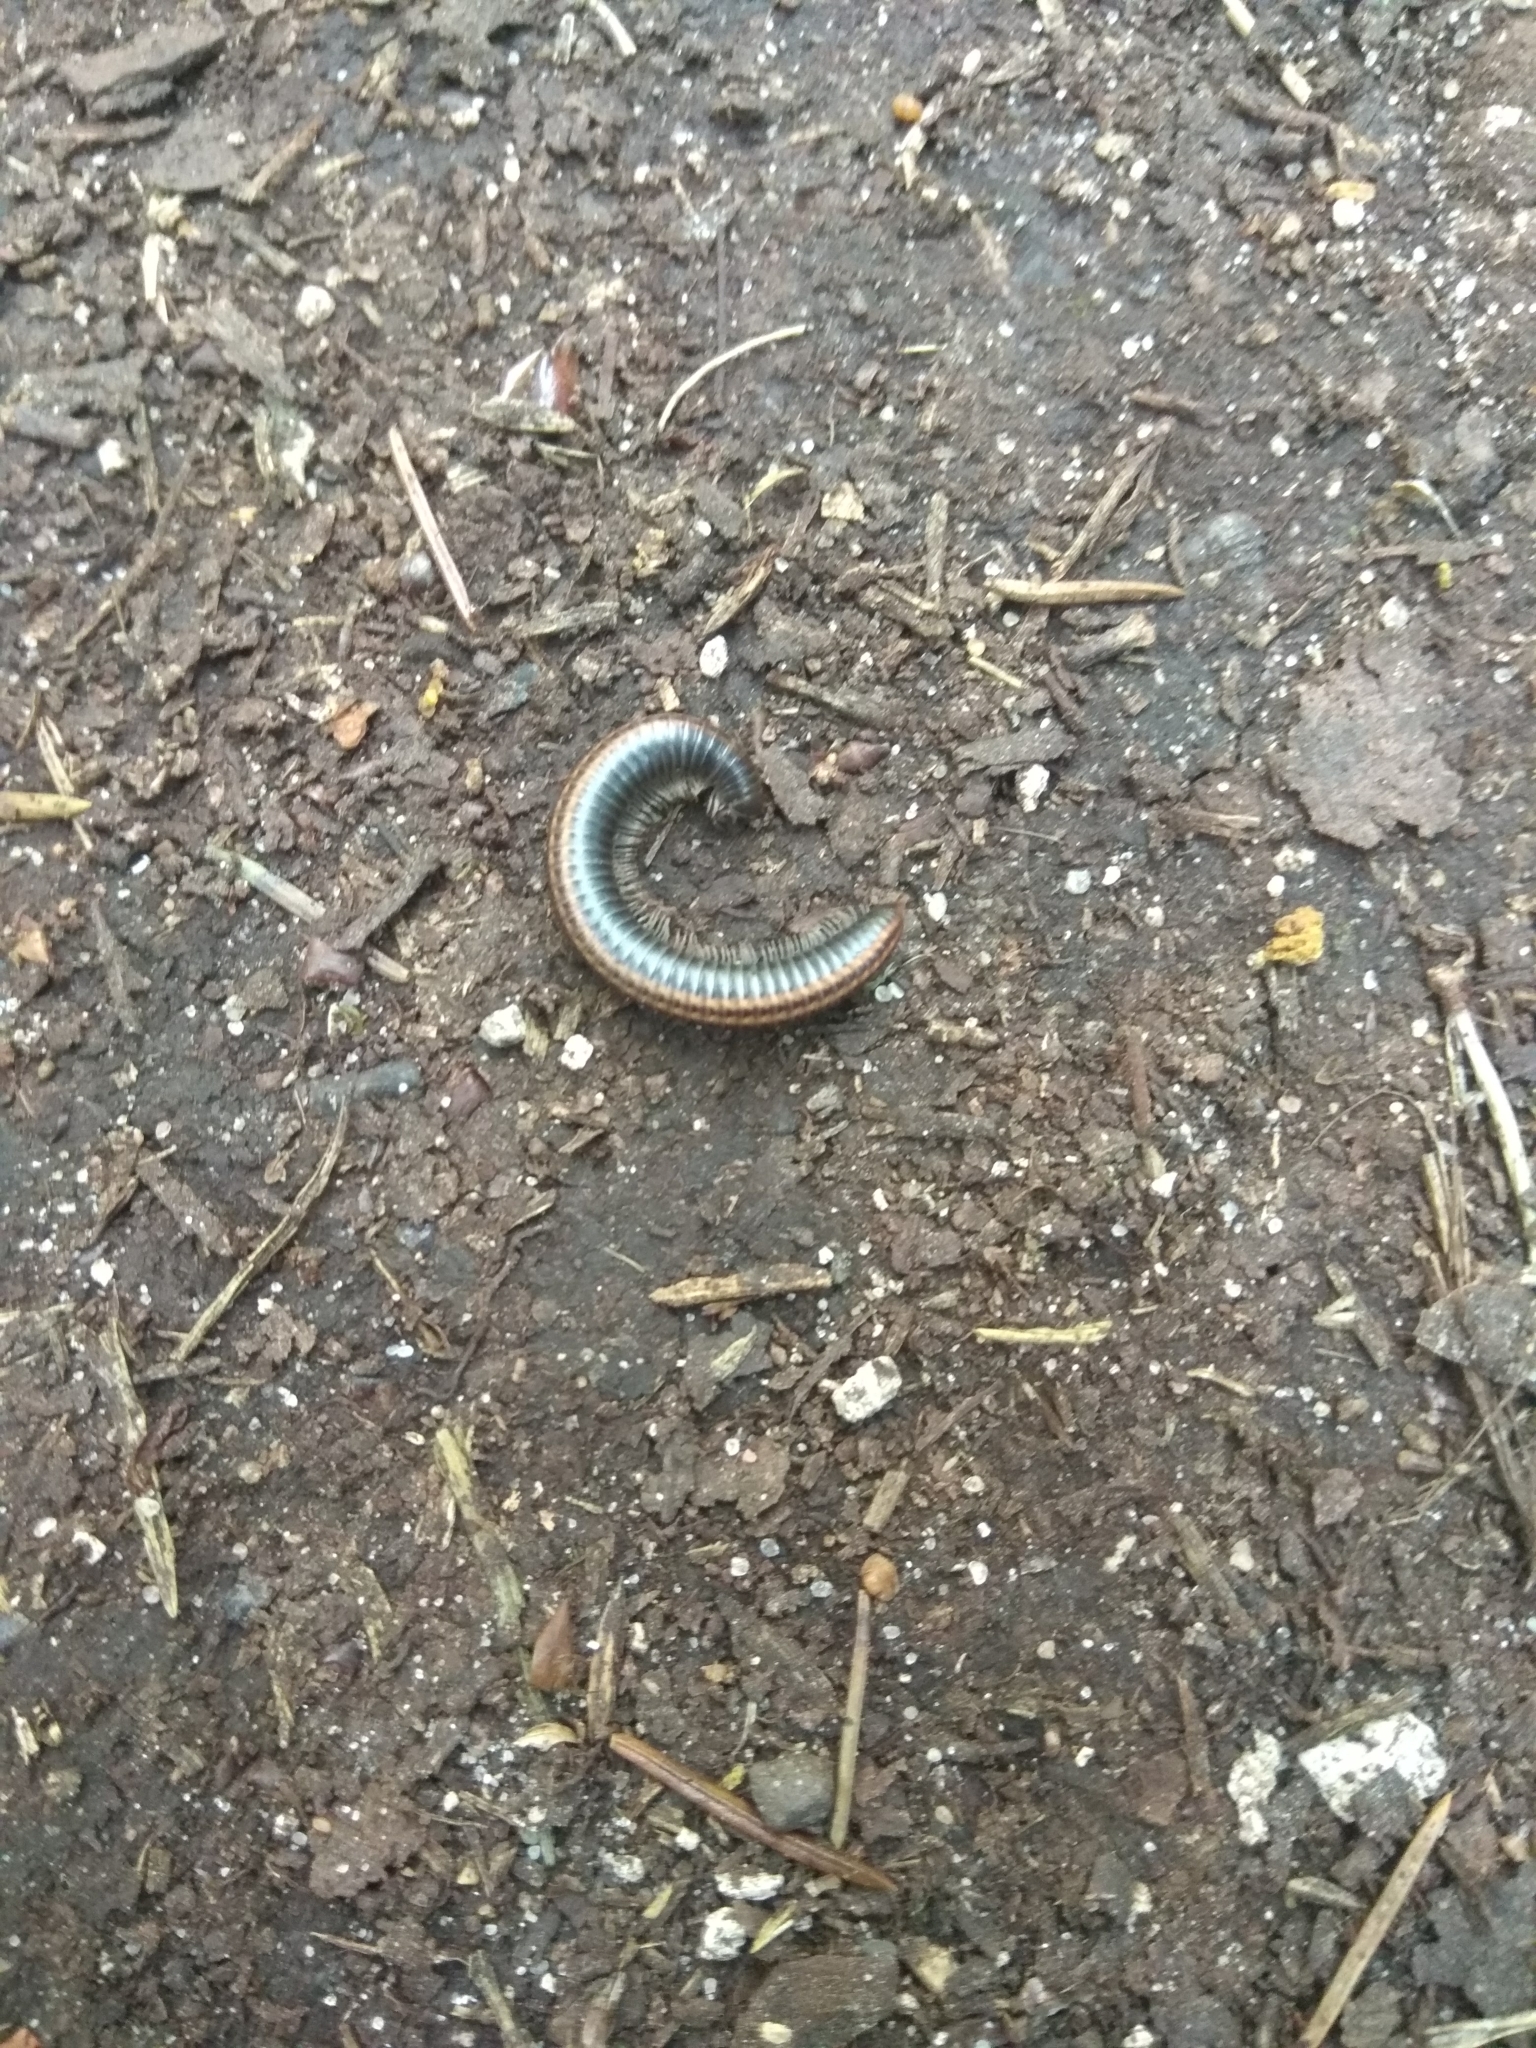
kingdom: Animalia
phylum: Arthropoda
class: Diplopoda
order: Julida
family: Julidae
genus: Ommatoiulus
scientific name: Ommatoiulus sabulosus
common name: Striped millipede
